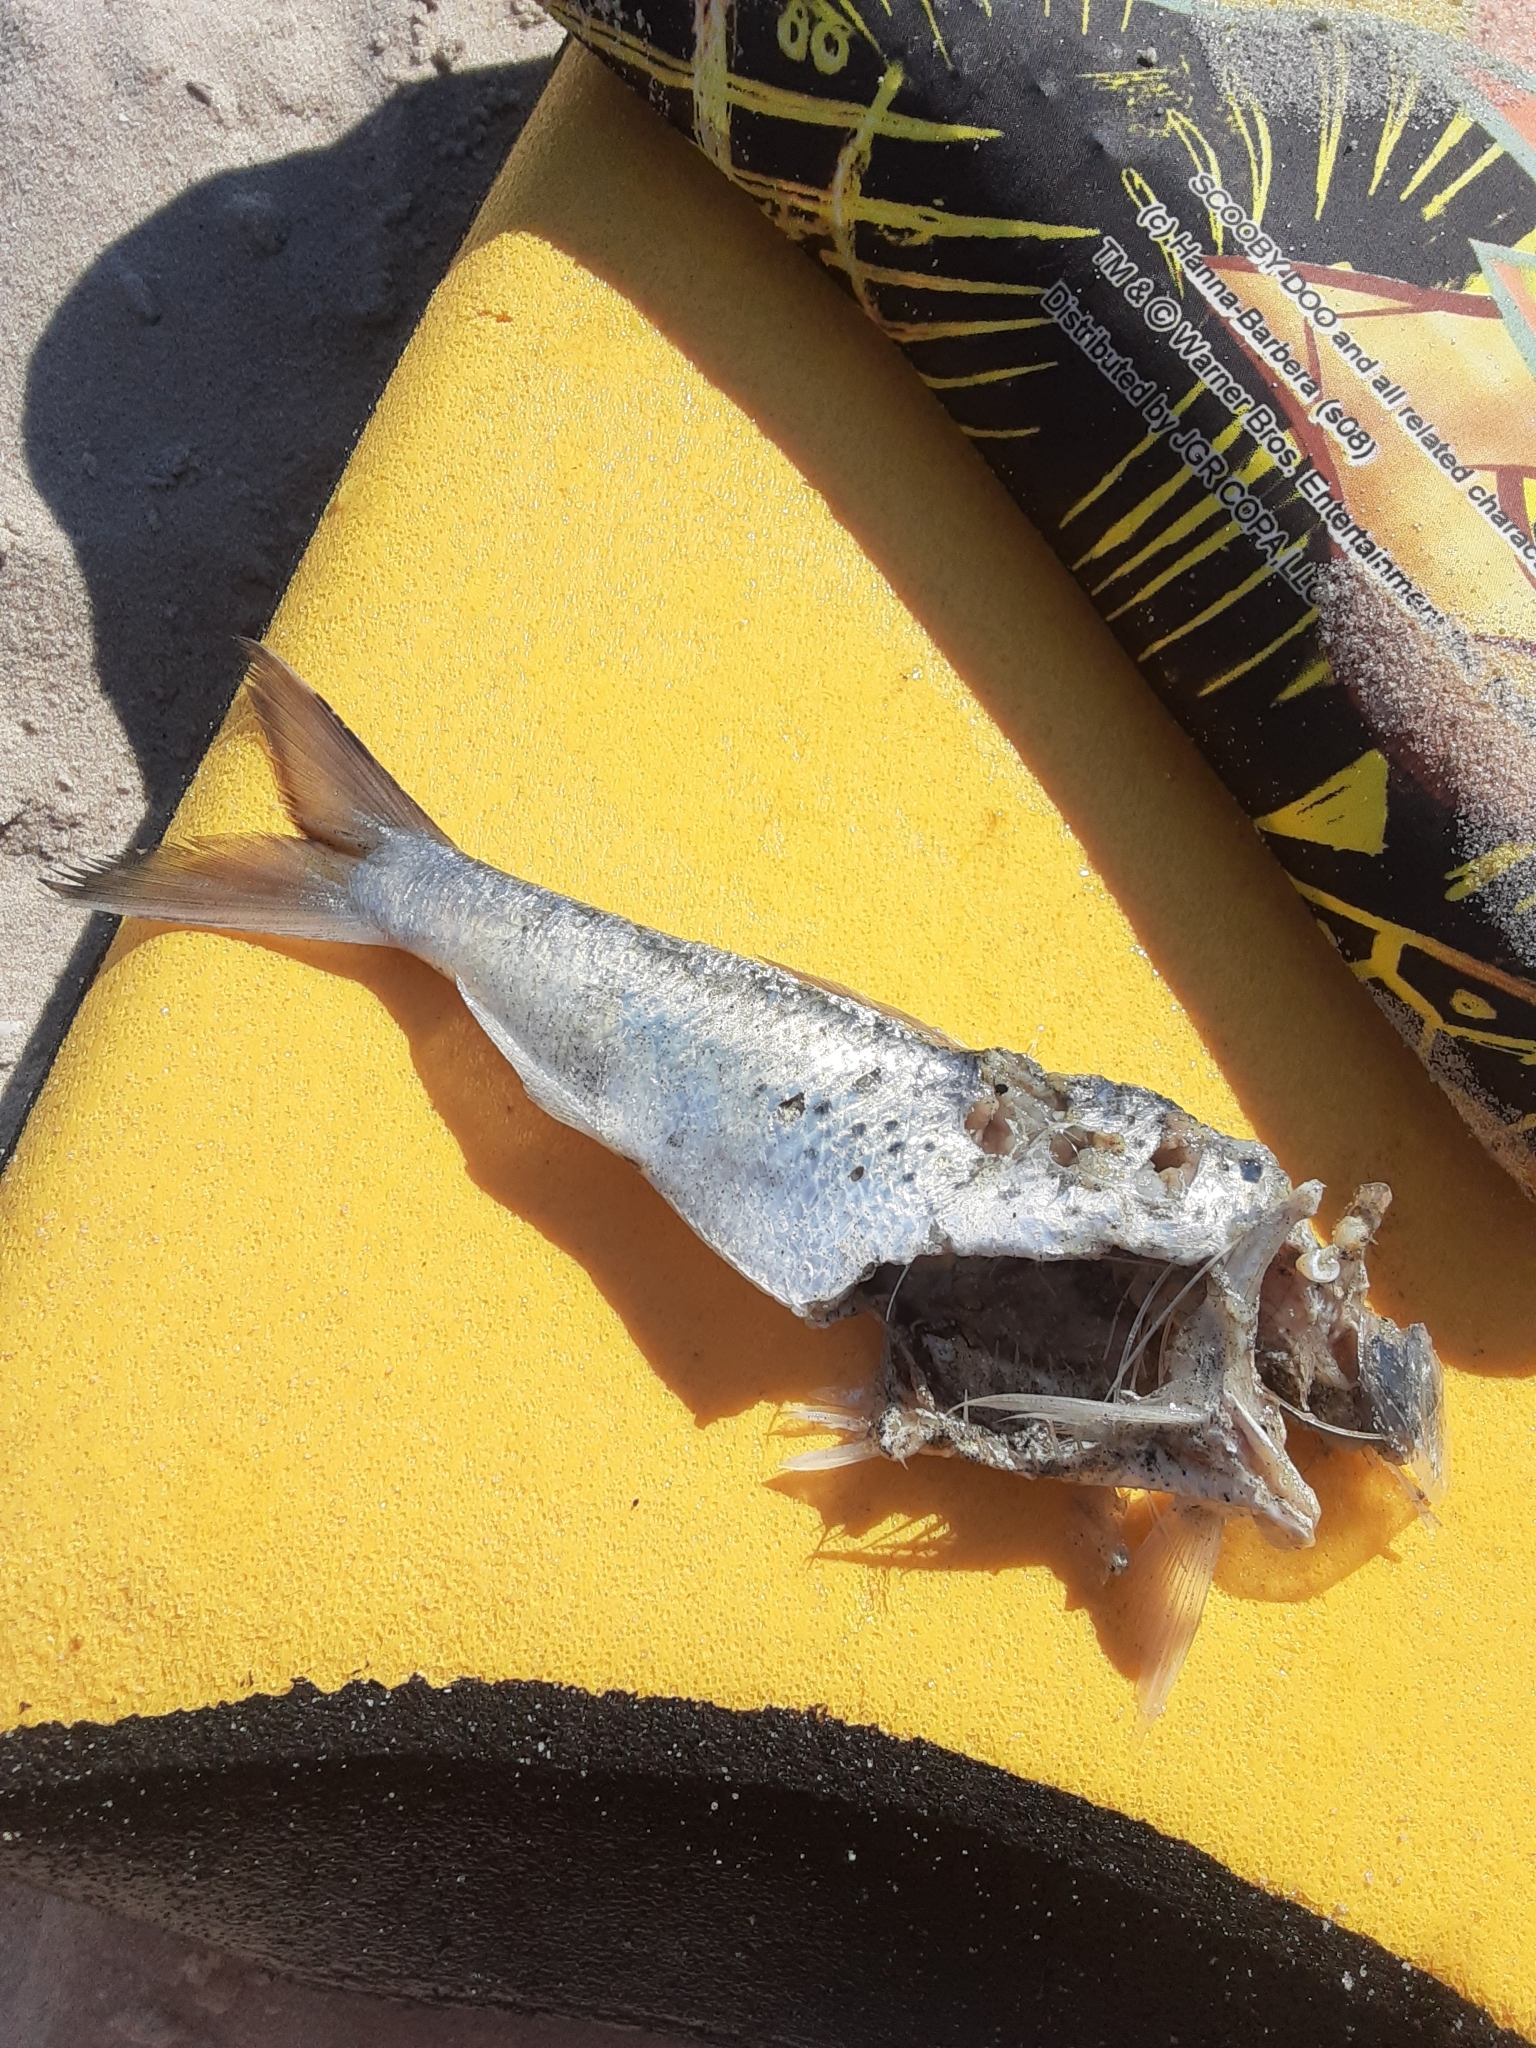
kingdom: Animalia
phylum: Chordata
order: Clupeiformes
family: Clupeidae
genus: Brevoortia
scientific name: Brevoortia tyrannus
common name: Atlantic menhaden
